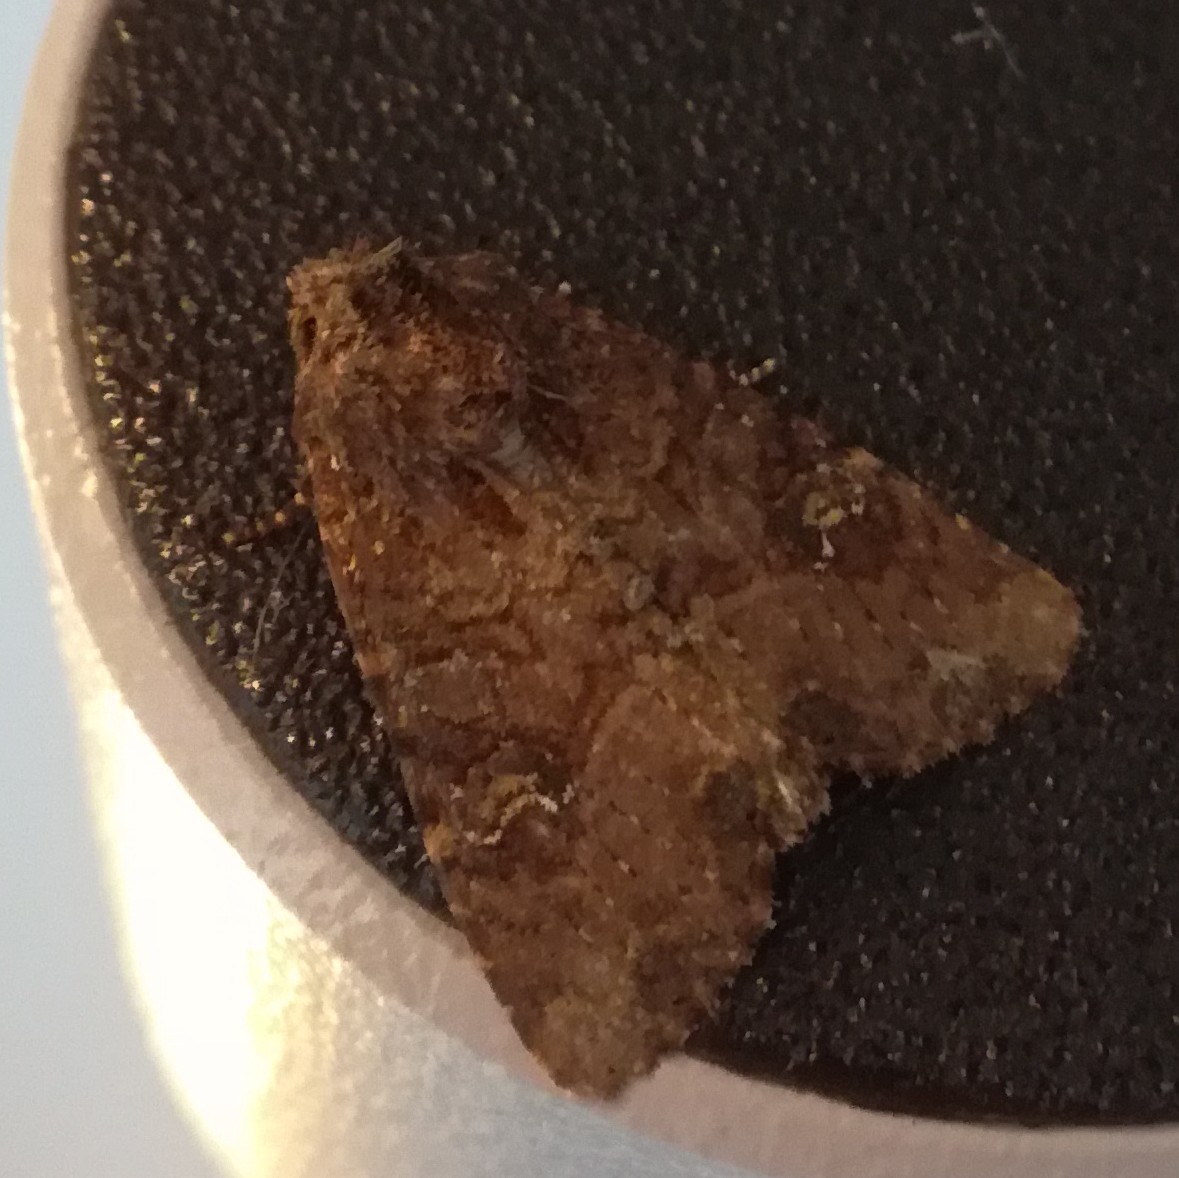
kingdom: Animalia
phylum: Arthropoda
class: Insecta
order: Lepidoptera
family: Noctuidae
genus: Mesapamea
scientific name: Mesapamea
